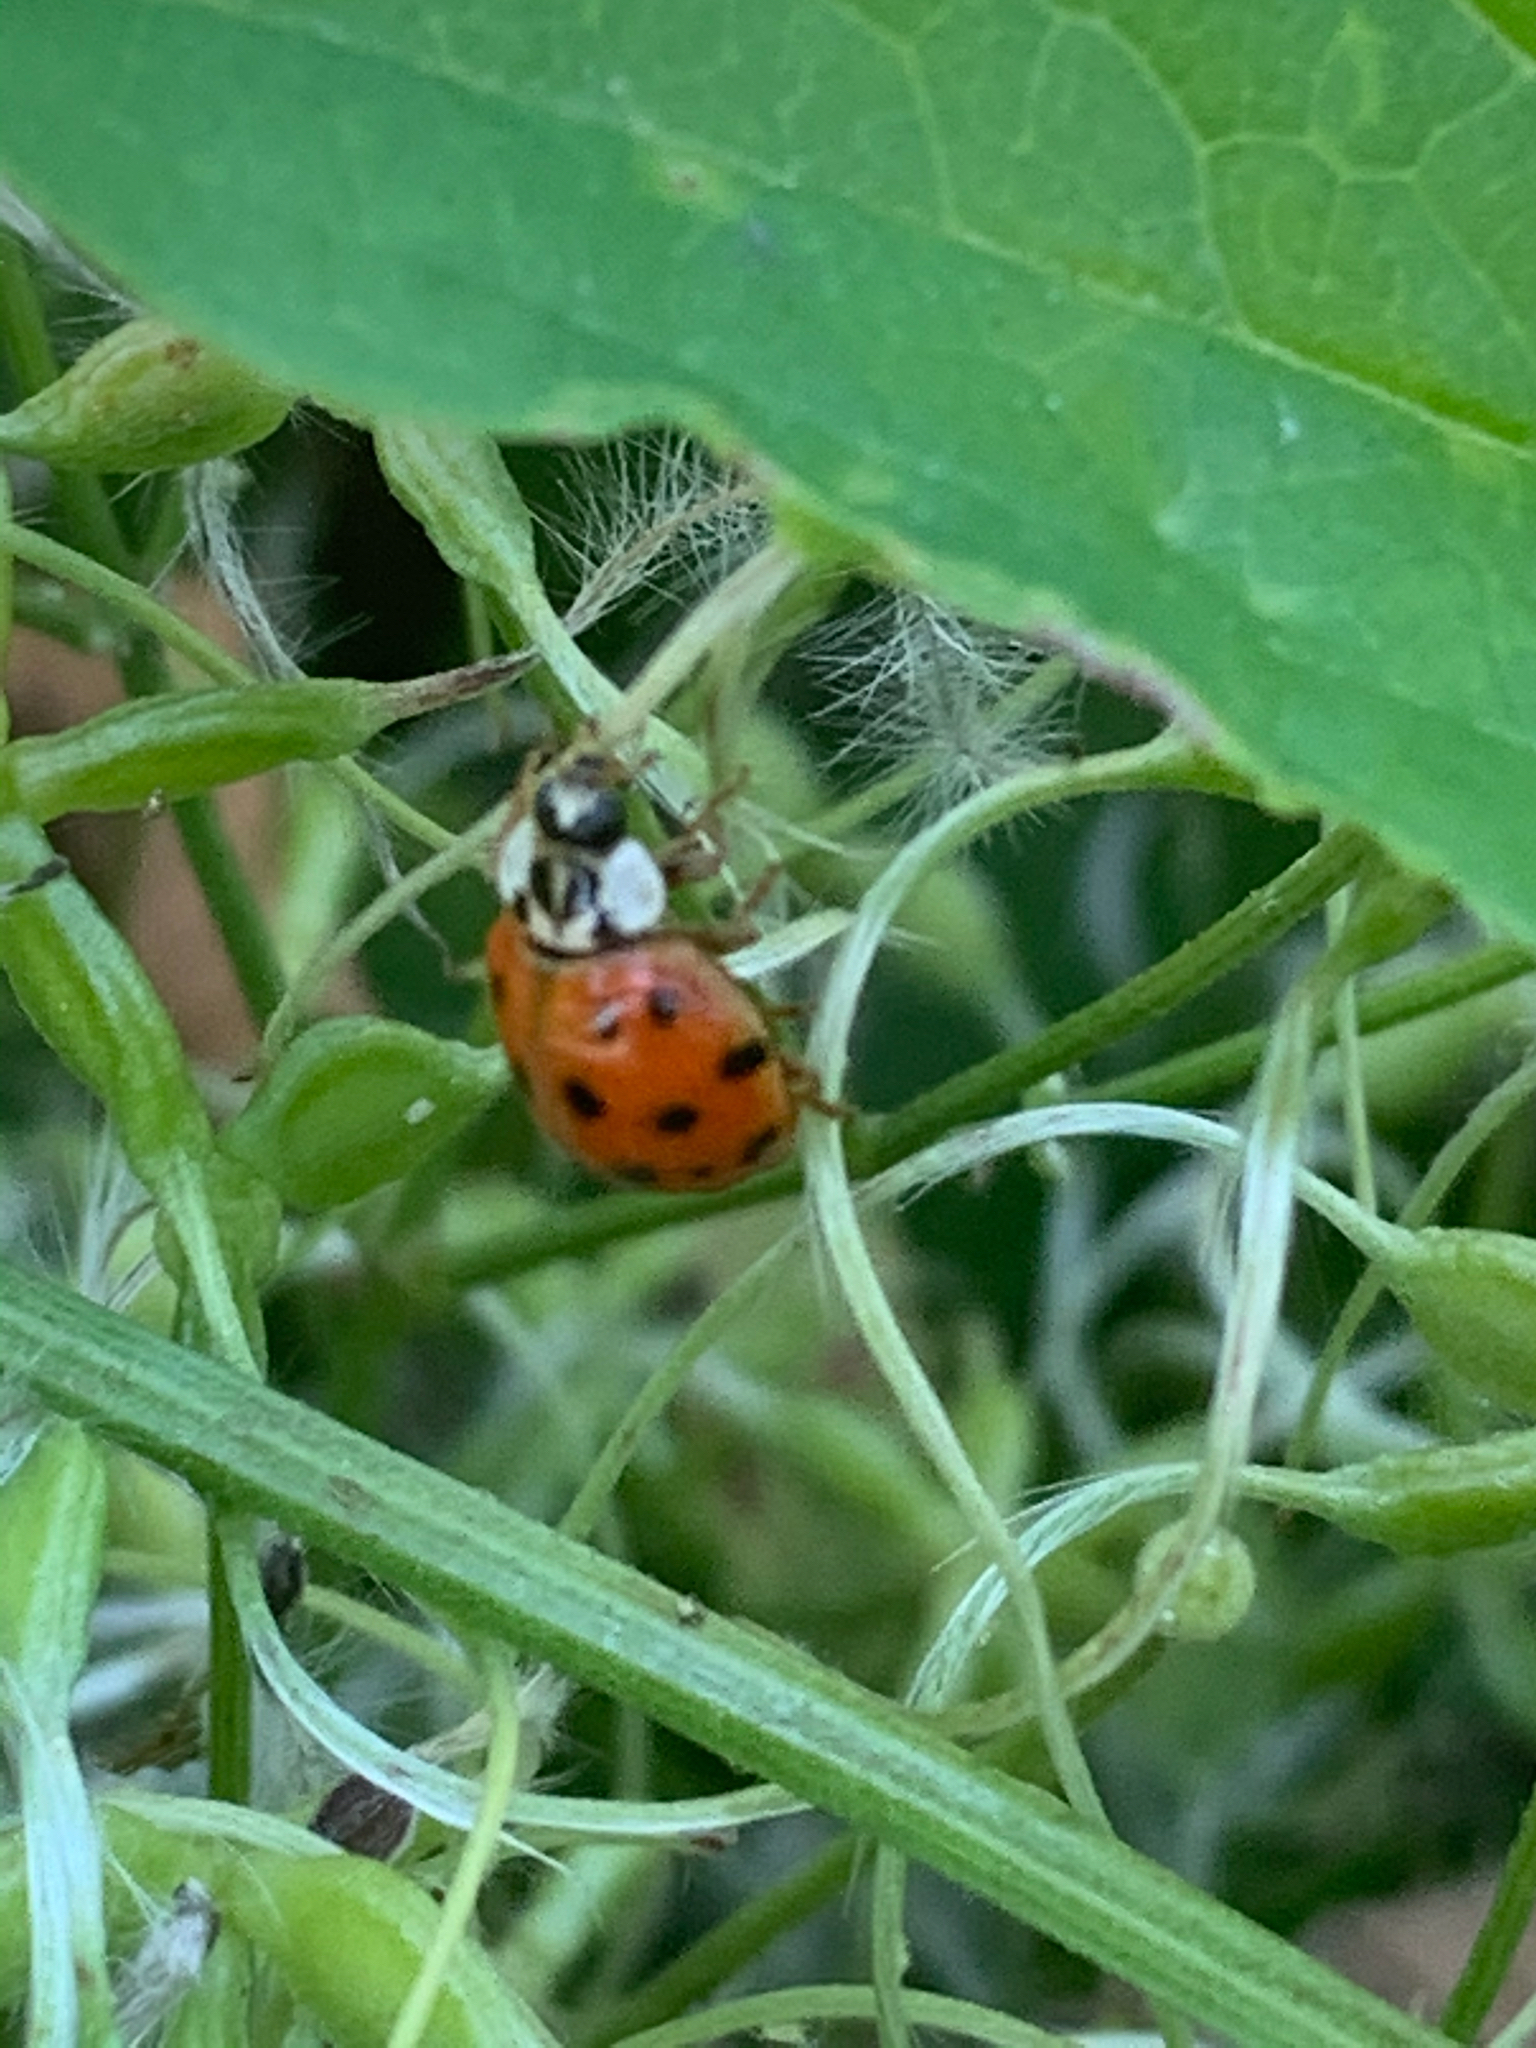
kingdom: Animalia
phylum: Arthropoda
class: Insecta
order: Coleoptera
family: Coccinellidae
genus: Harmonia
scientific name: Harmonia axyridis
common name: Harlequin ladybird
